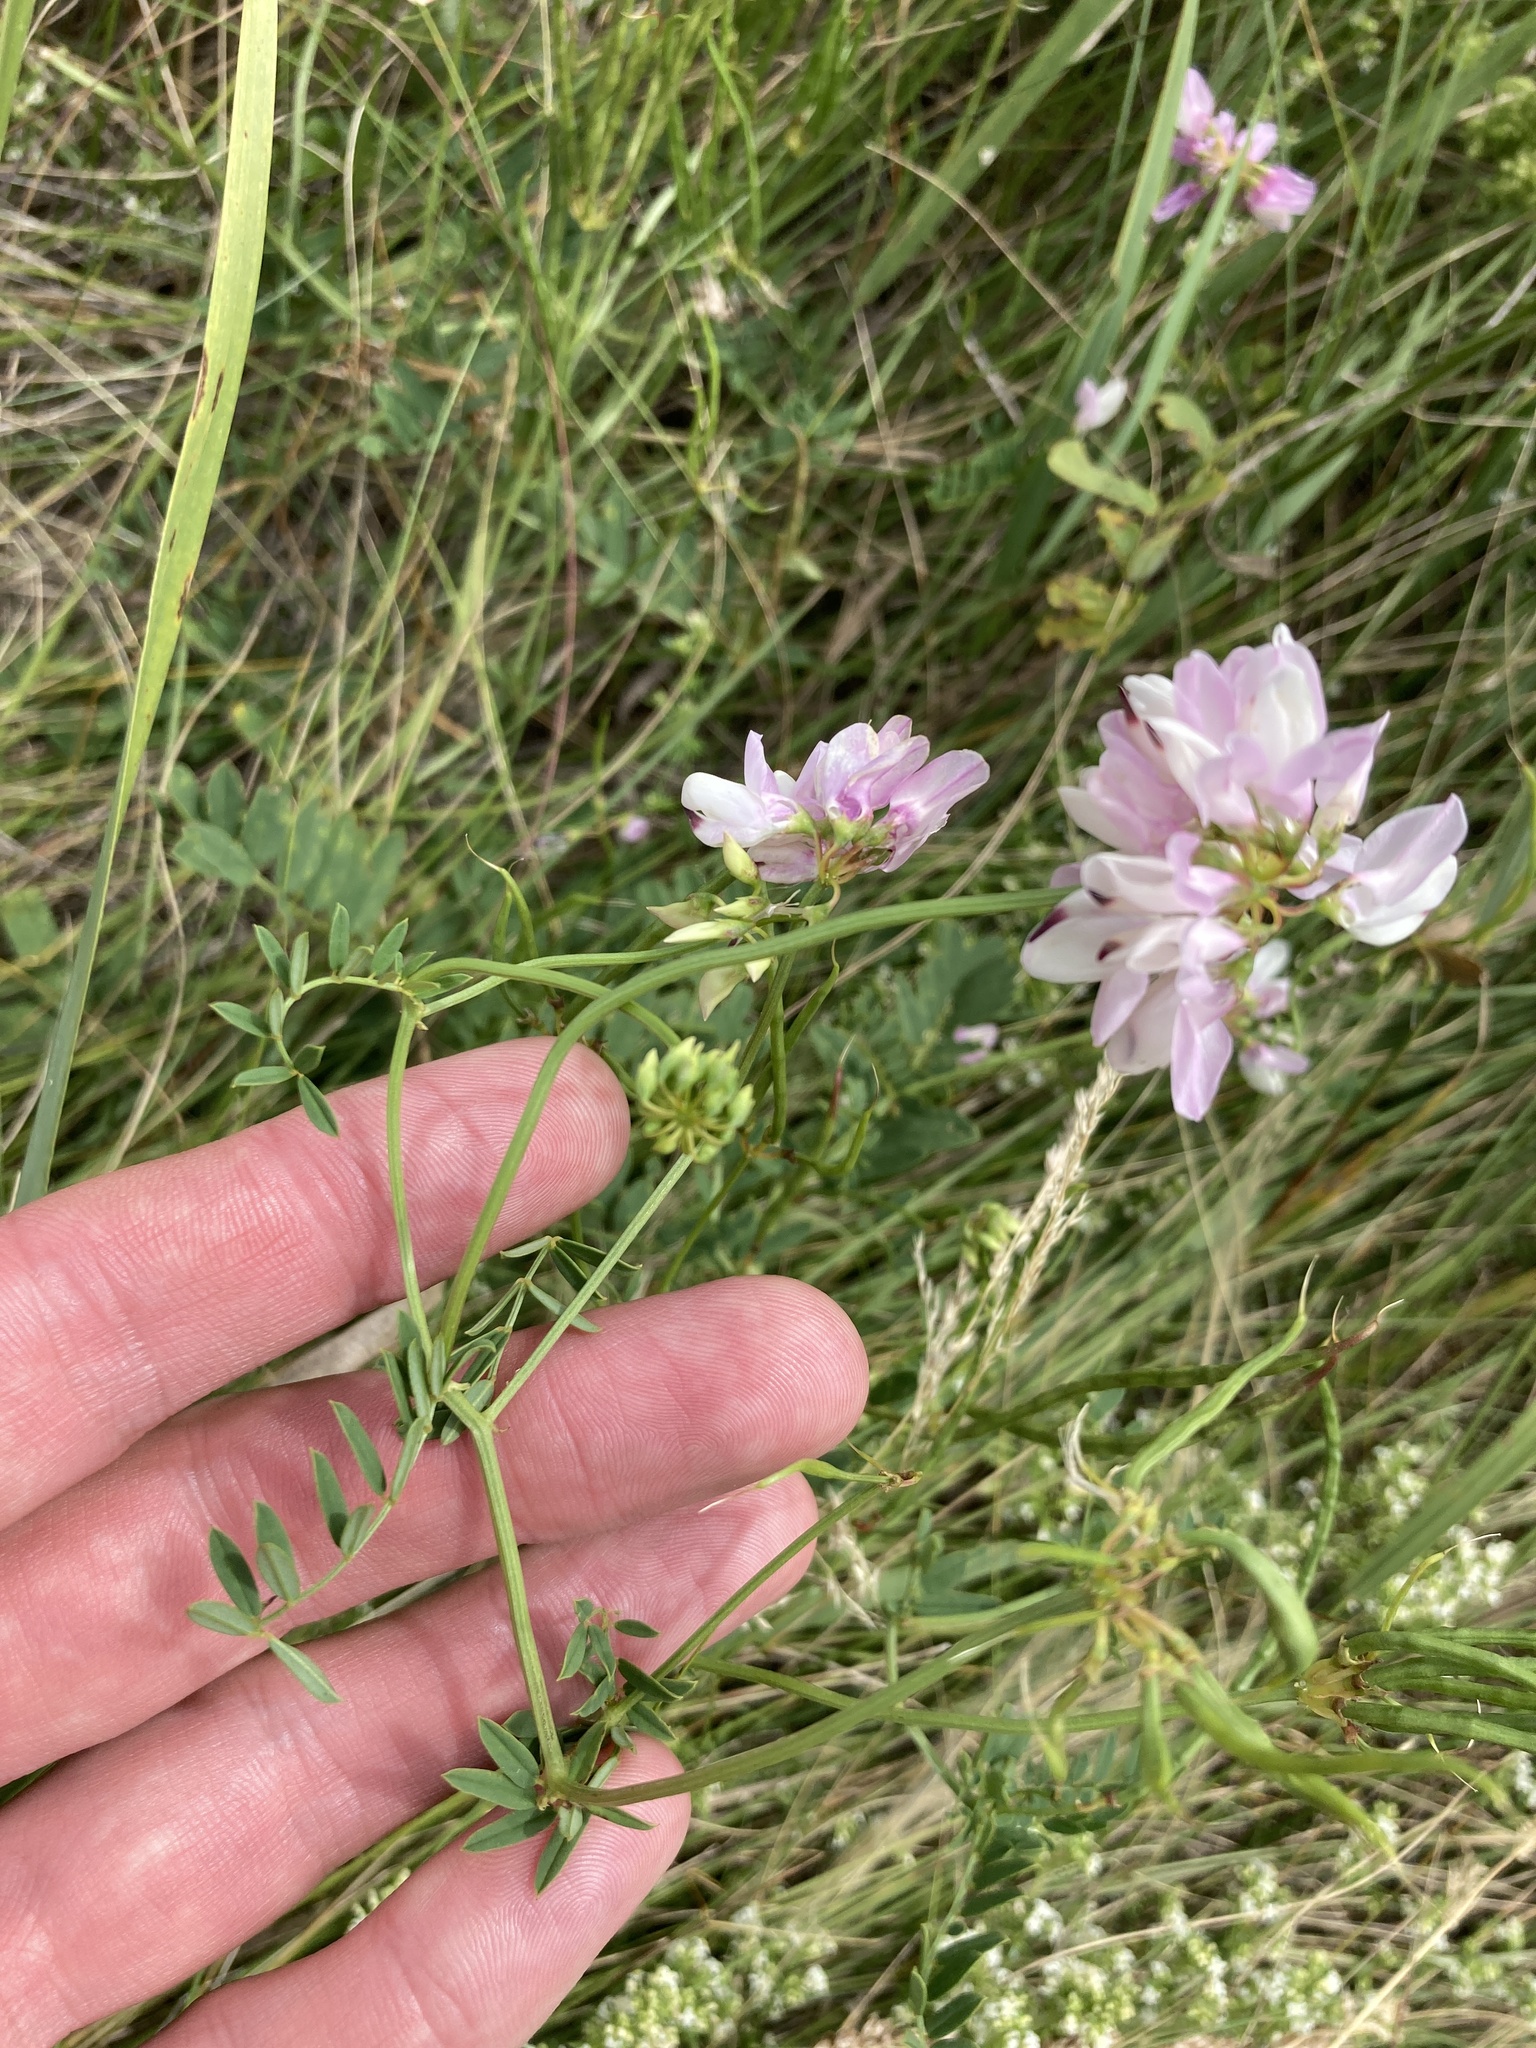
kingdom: Plantae
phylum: Tracheophyta
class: Magnoliopsida
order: Fabales
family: Fabaceae
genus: Coronilla
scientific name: Coronilla varia
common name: Crownvetch
